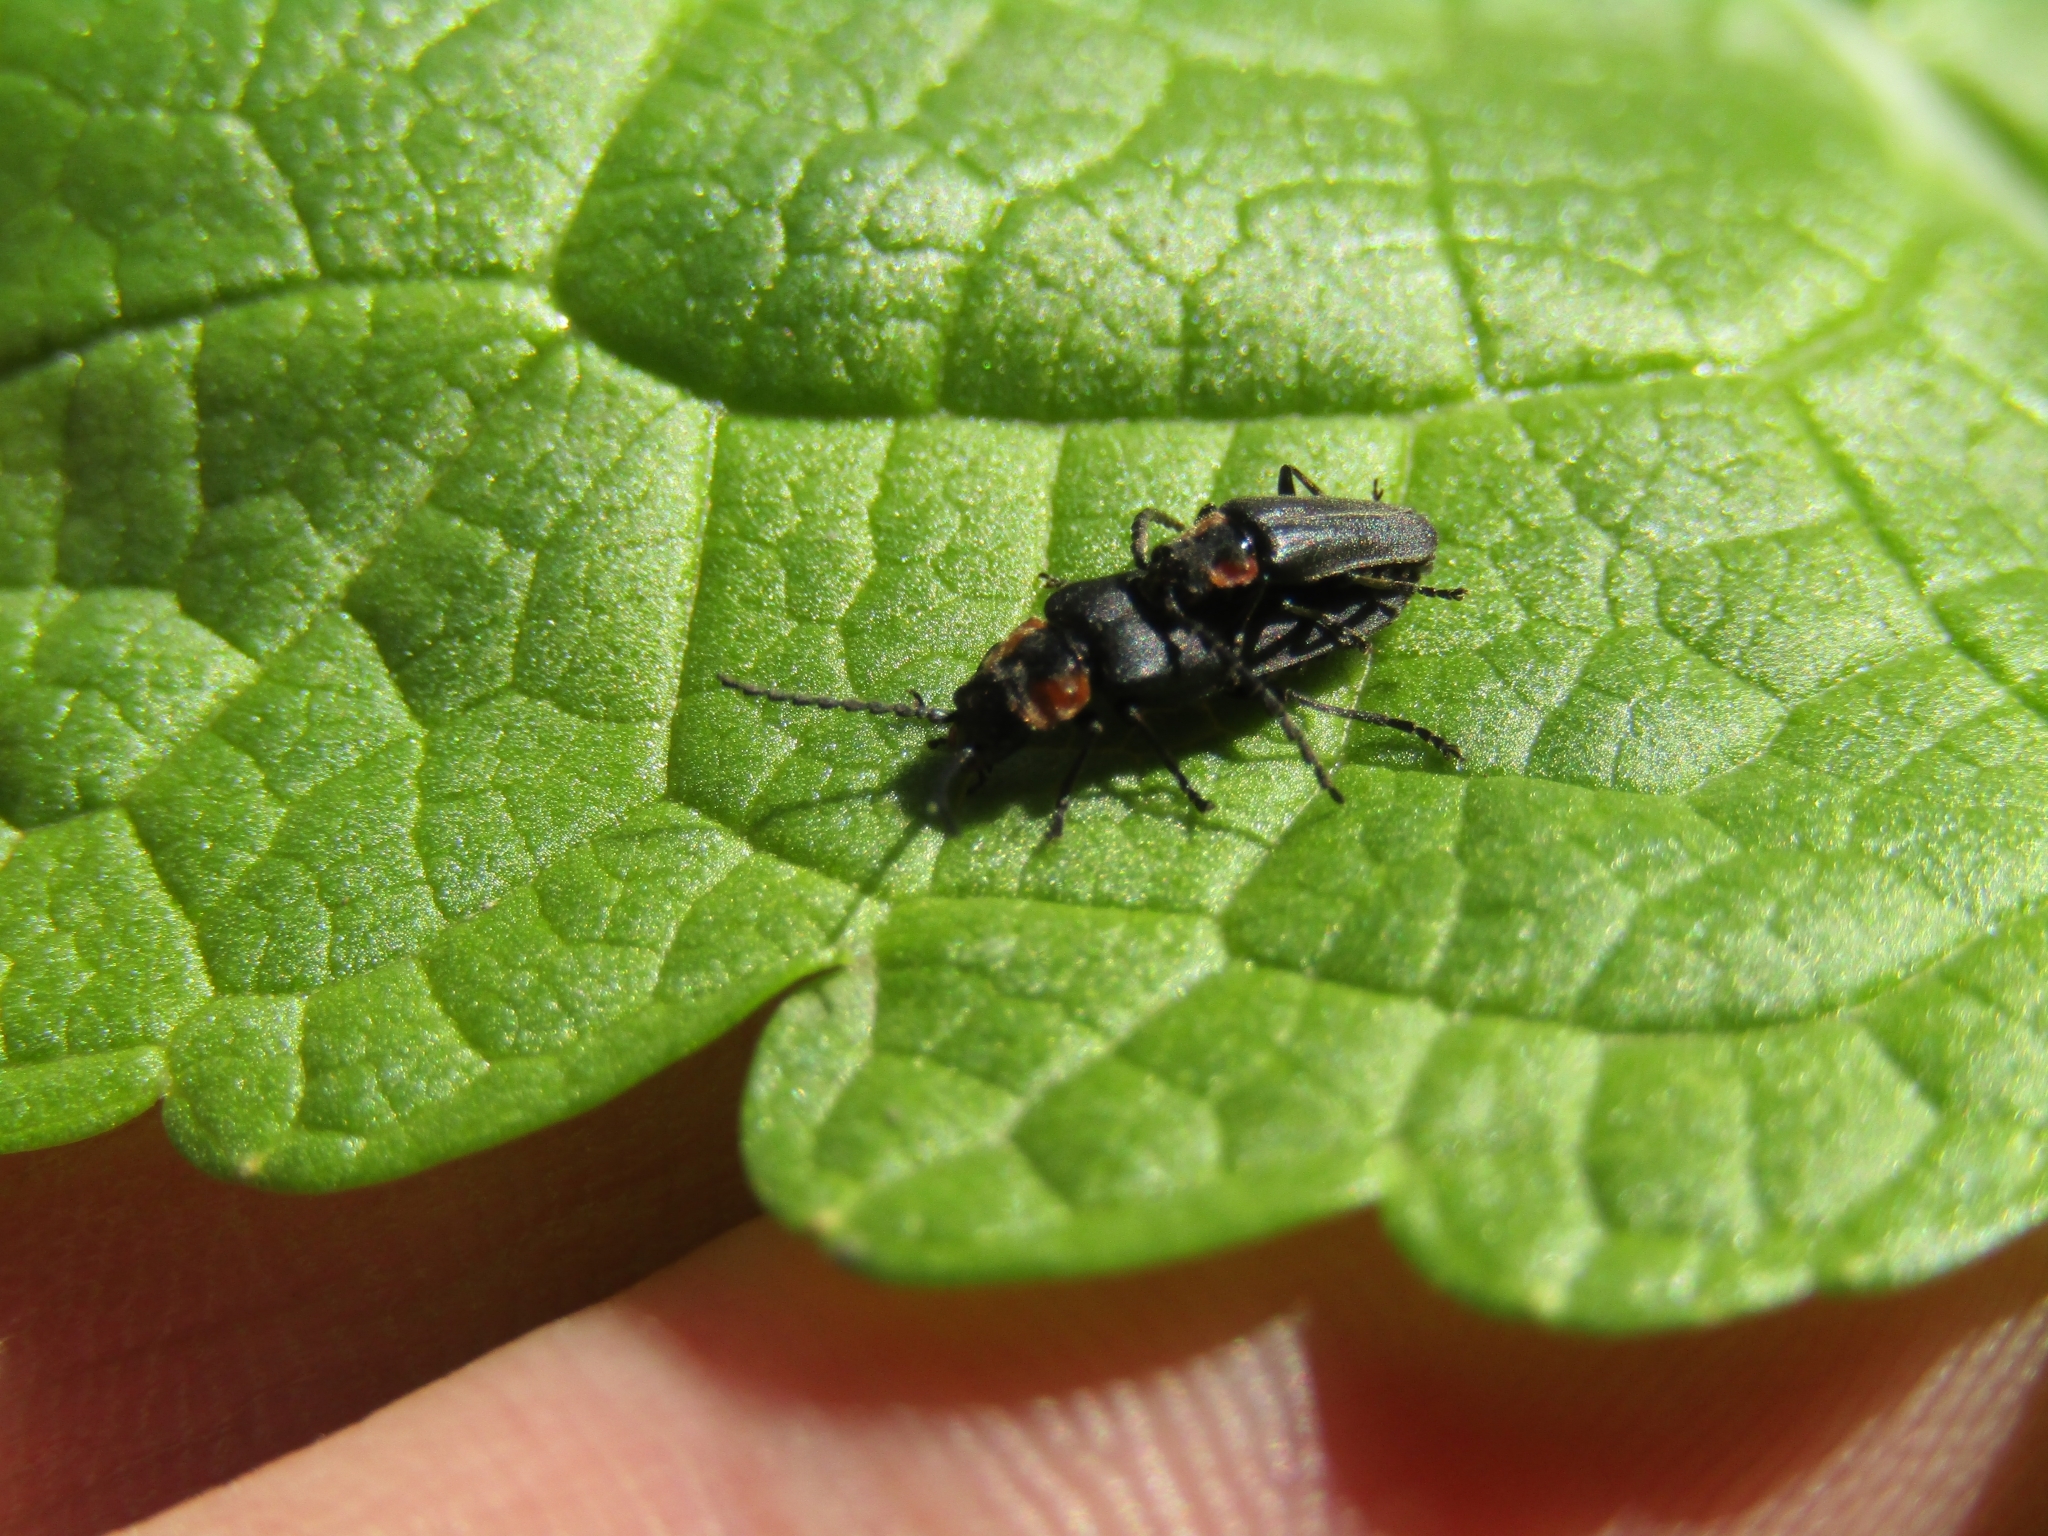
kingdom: Animalia
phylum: Arthropoda
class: Insecta
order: Coleoptera
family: Cantharidae
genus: Polemius
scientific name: Polemius
